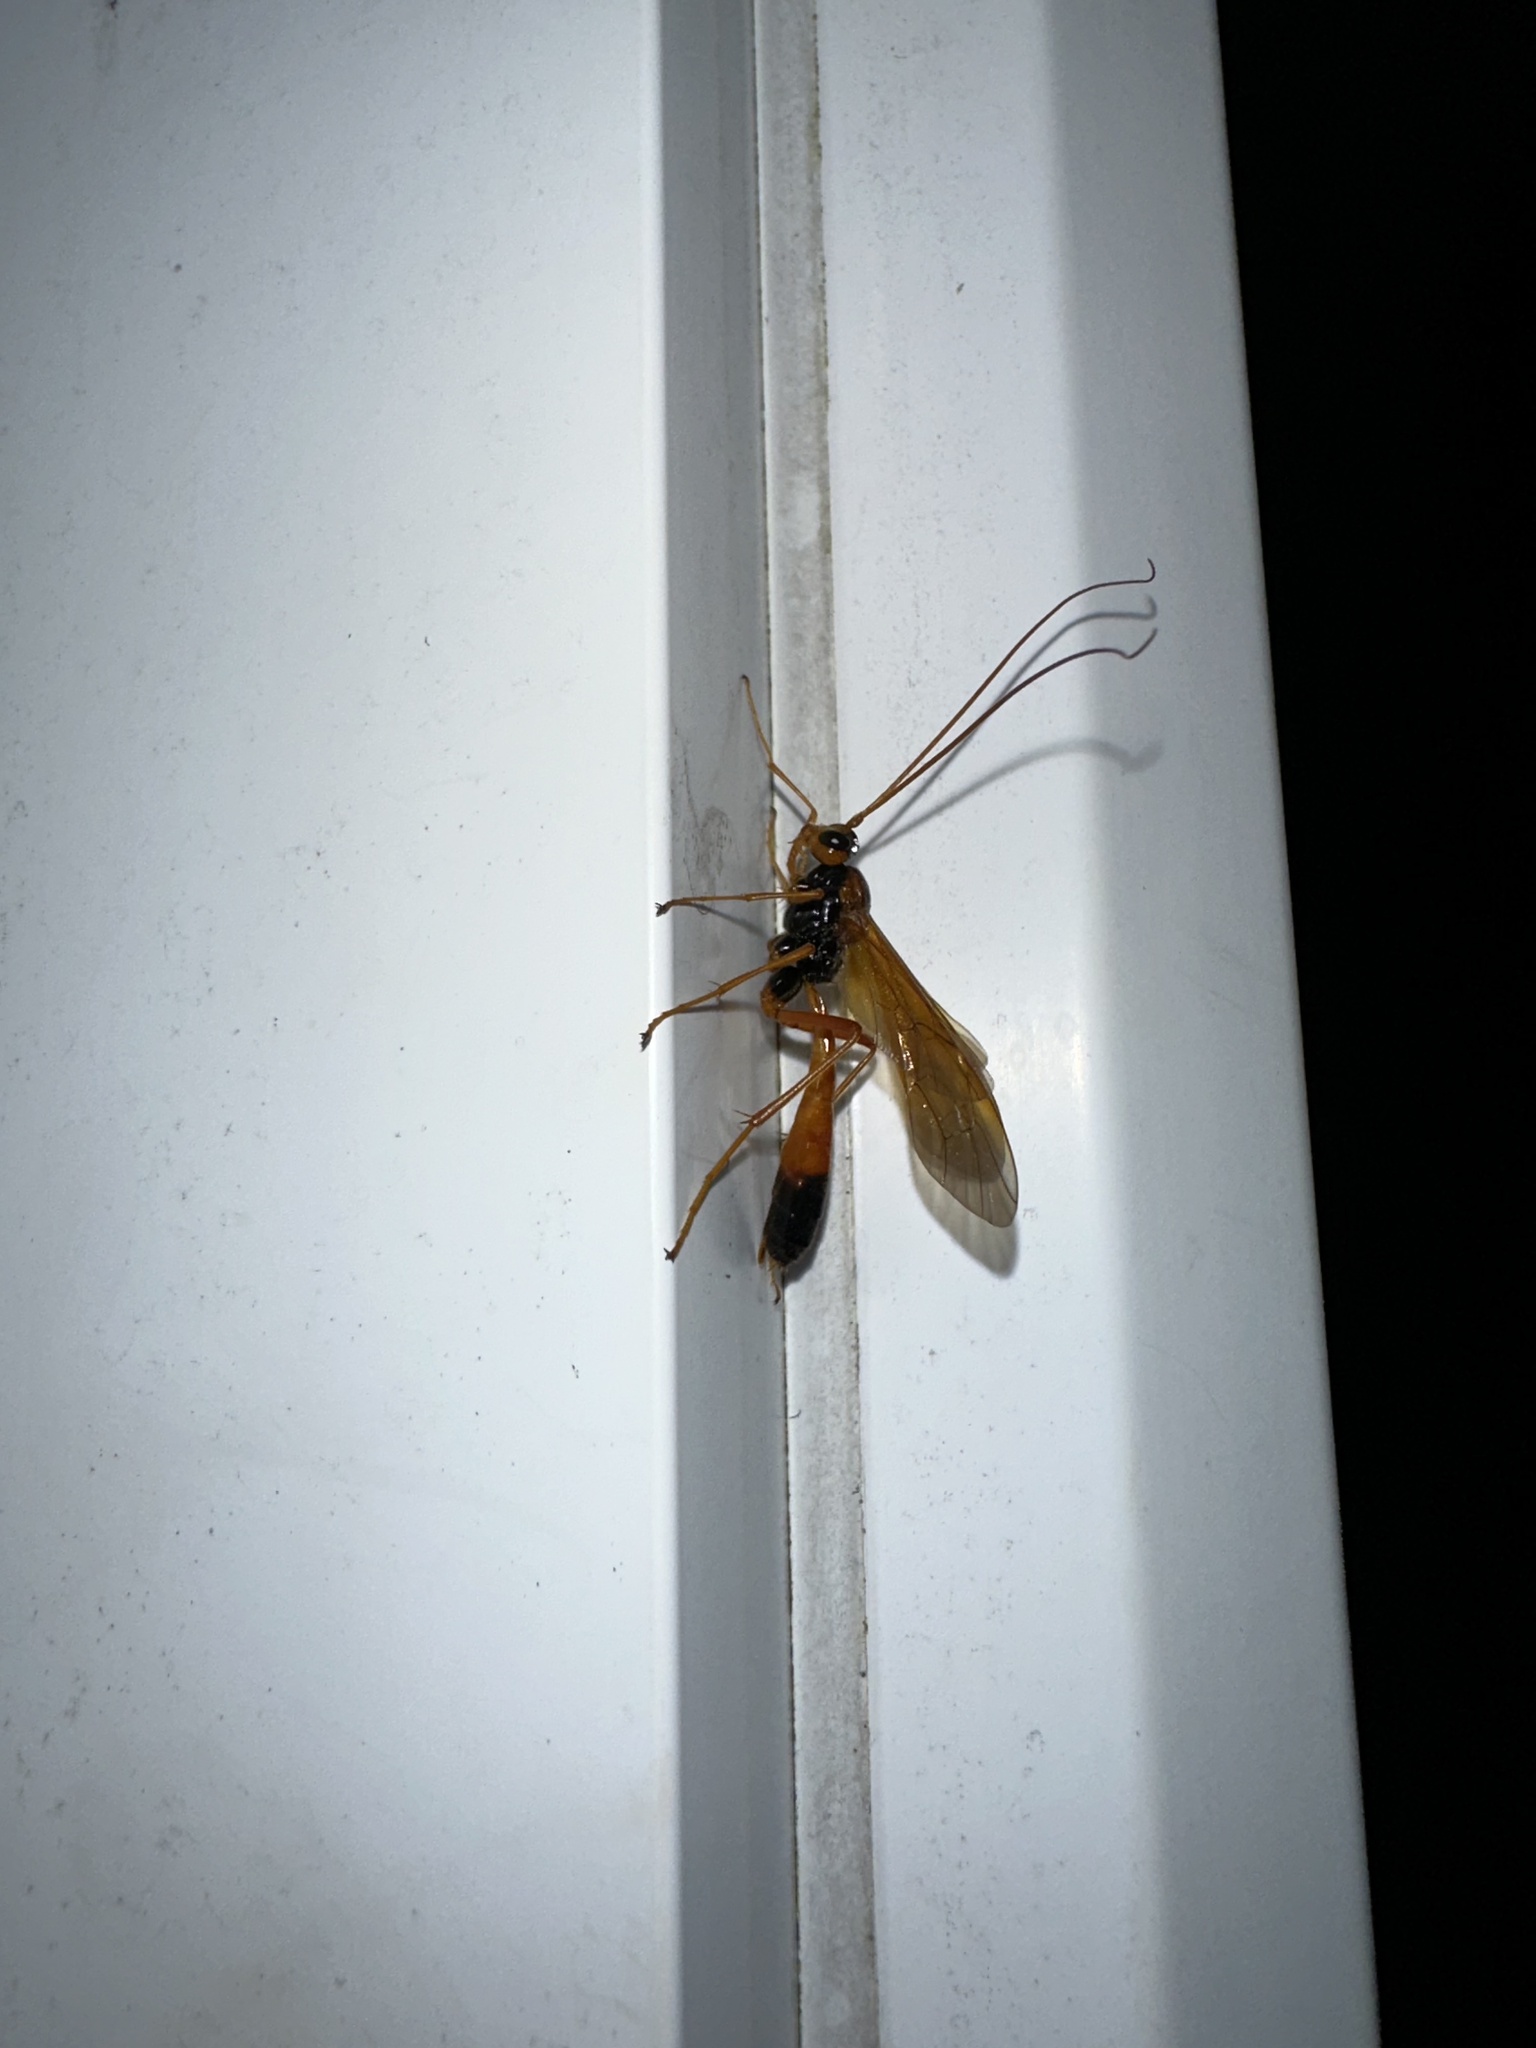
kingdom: Animalia
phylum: Arthropoda
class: Insecta
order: Hymenoptera
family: Ichneumonidae
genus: Opheltes
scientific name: Opheltes glaucopterus
